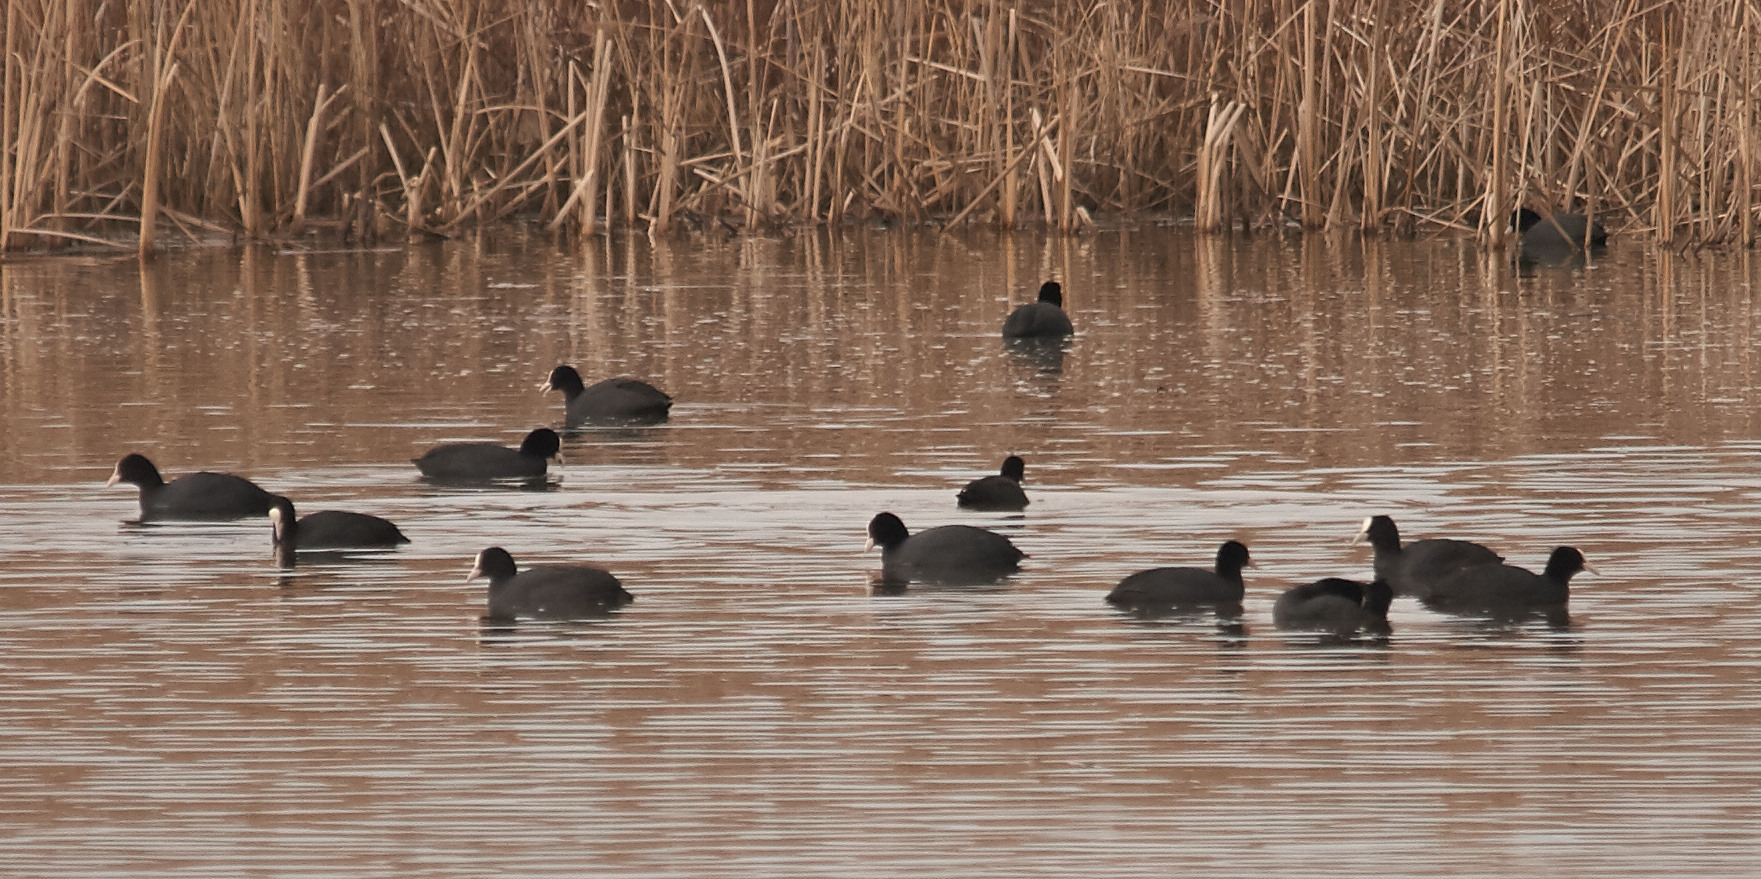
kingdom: Animalia
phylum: Chordata
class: Aves
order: Gruiformes
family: Rallidae
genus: Fulica
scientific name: Fulica atra
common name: Eurasian coot
